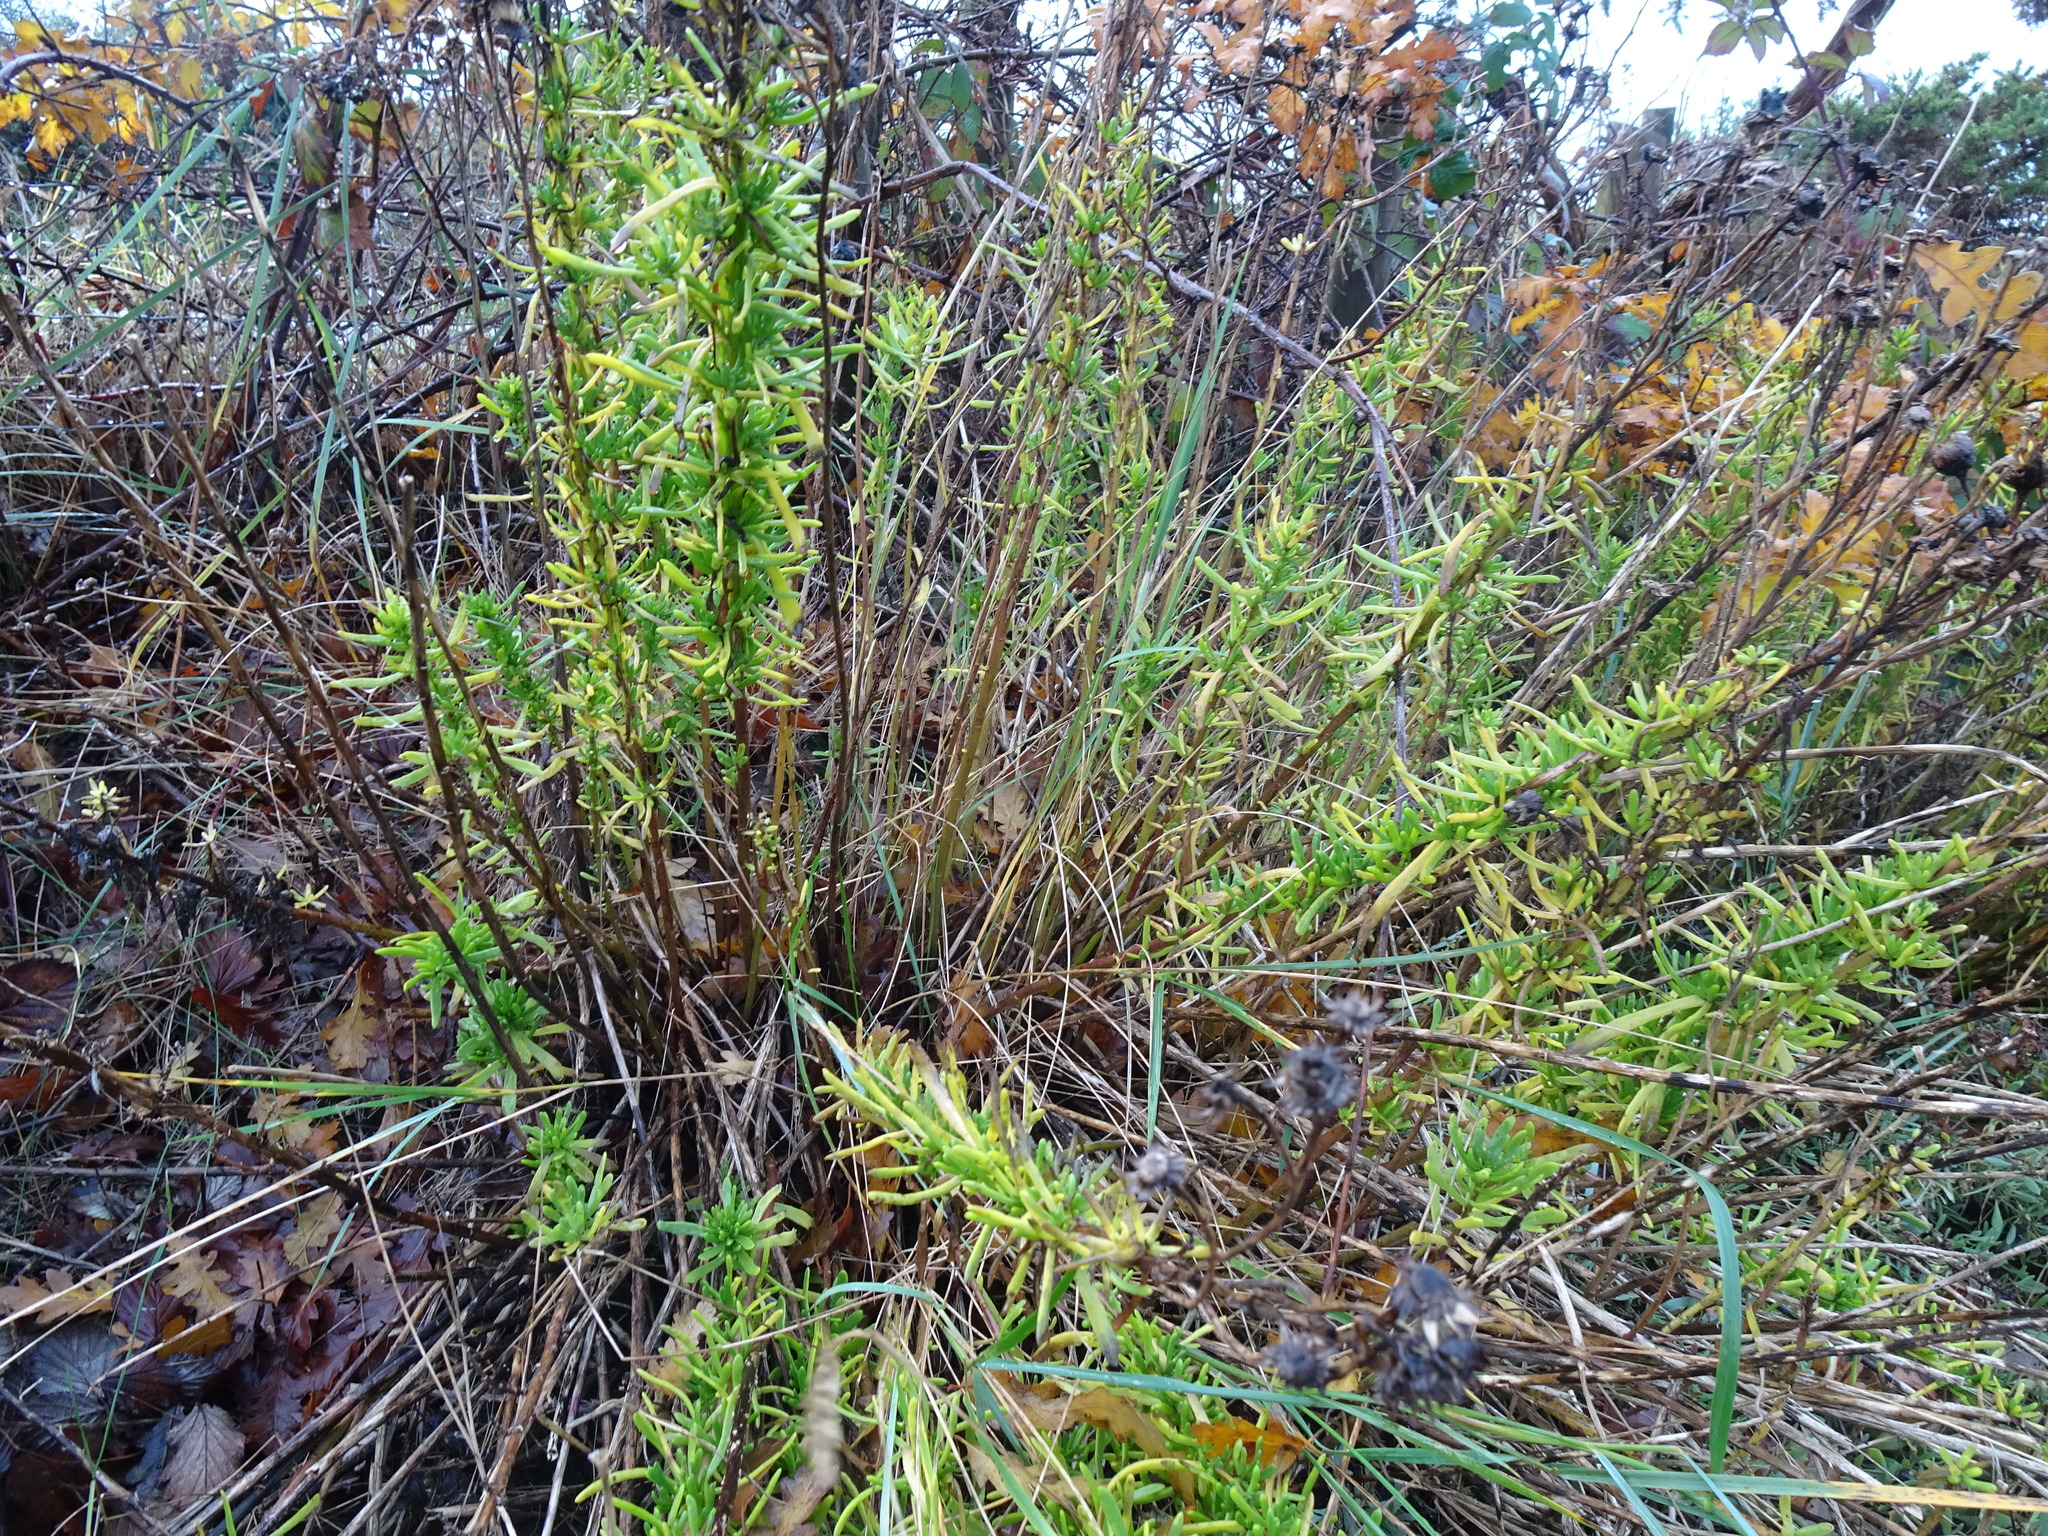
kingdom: Plantae
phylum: Tracheophyta
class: Magnoliopsida
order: Asterales
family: Asteraceae
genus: Limbarda
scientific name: Limbarda crithmoides
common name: Golden samphire
